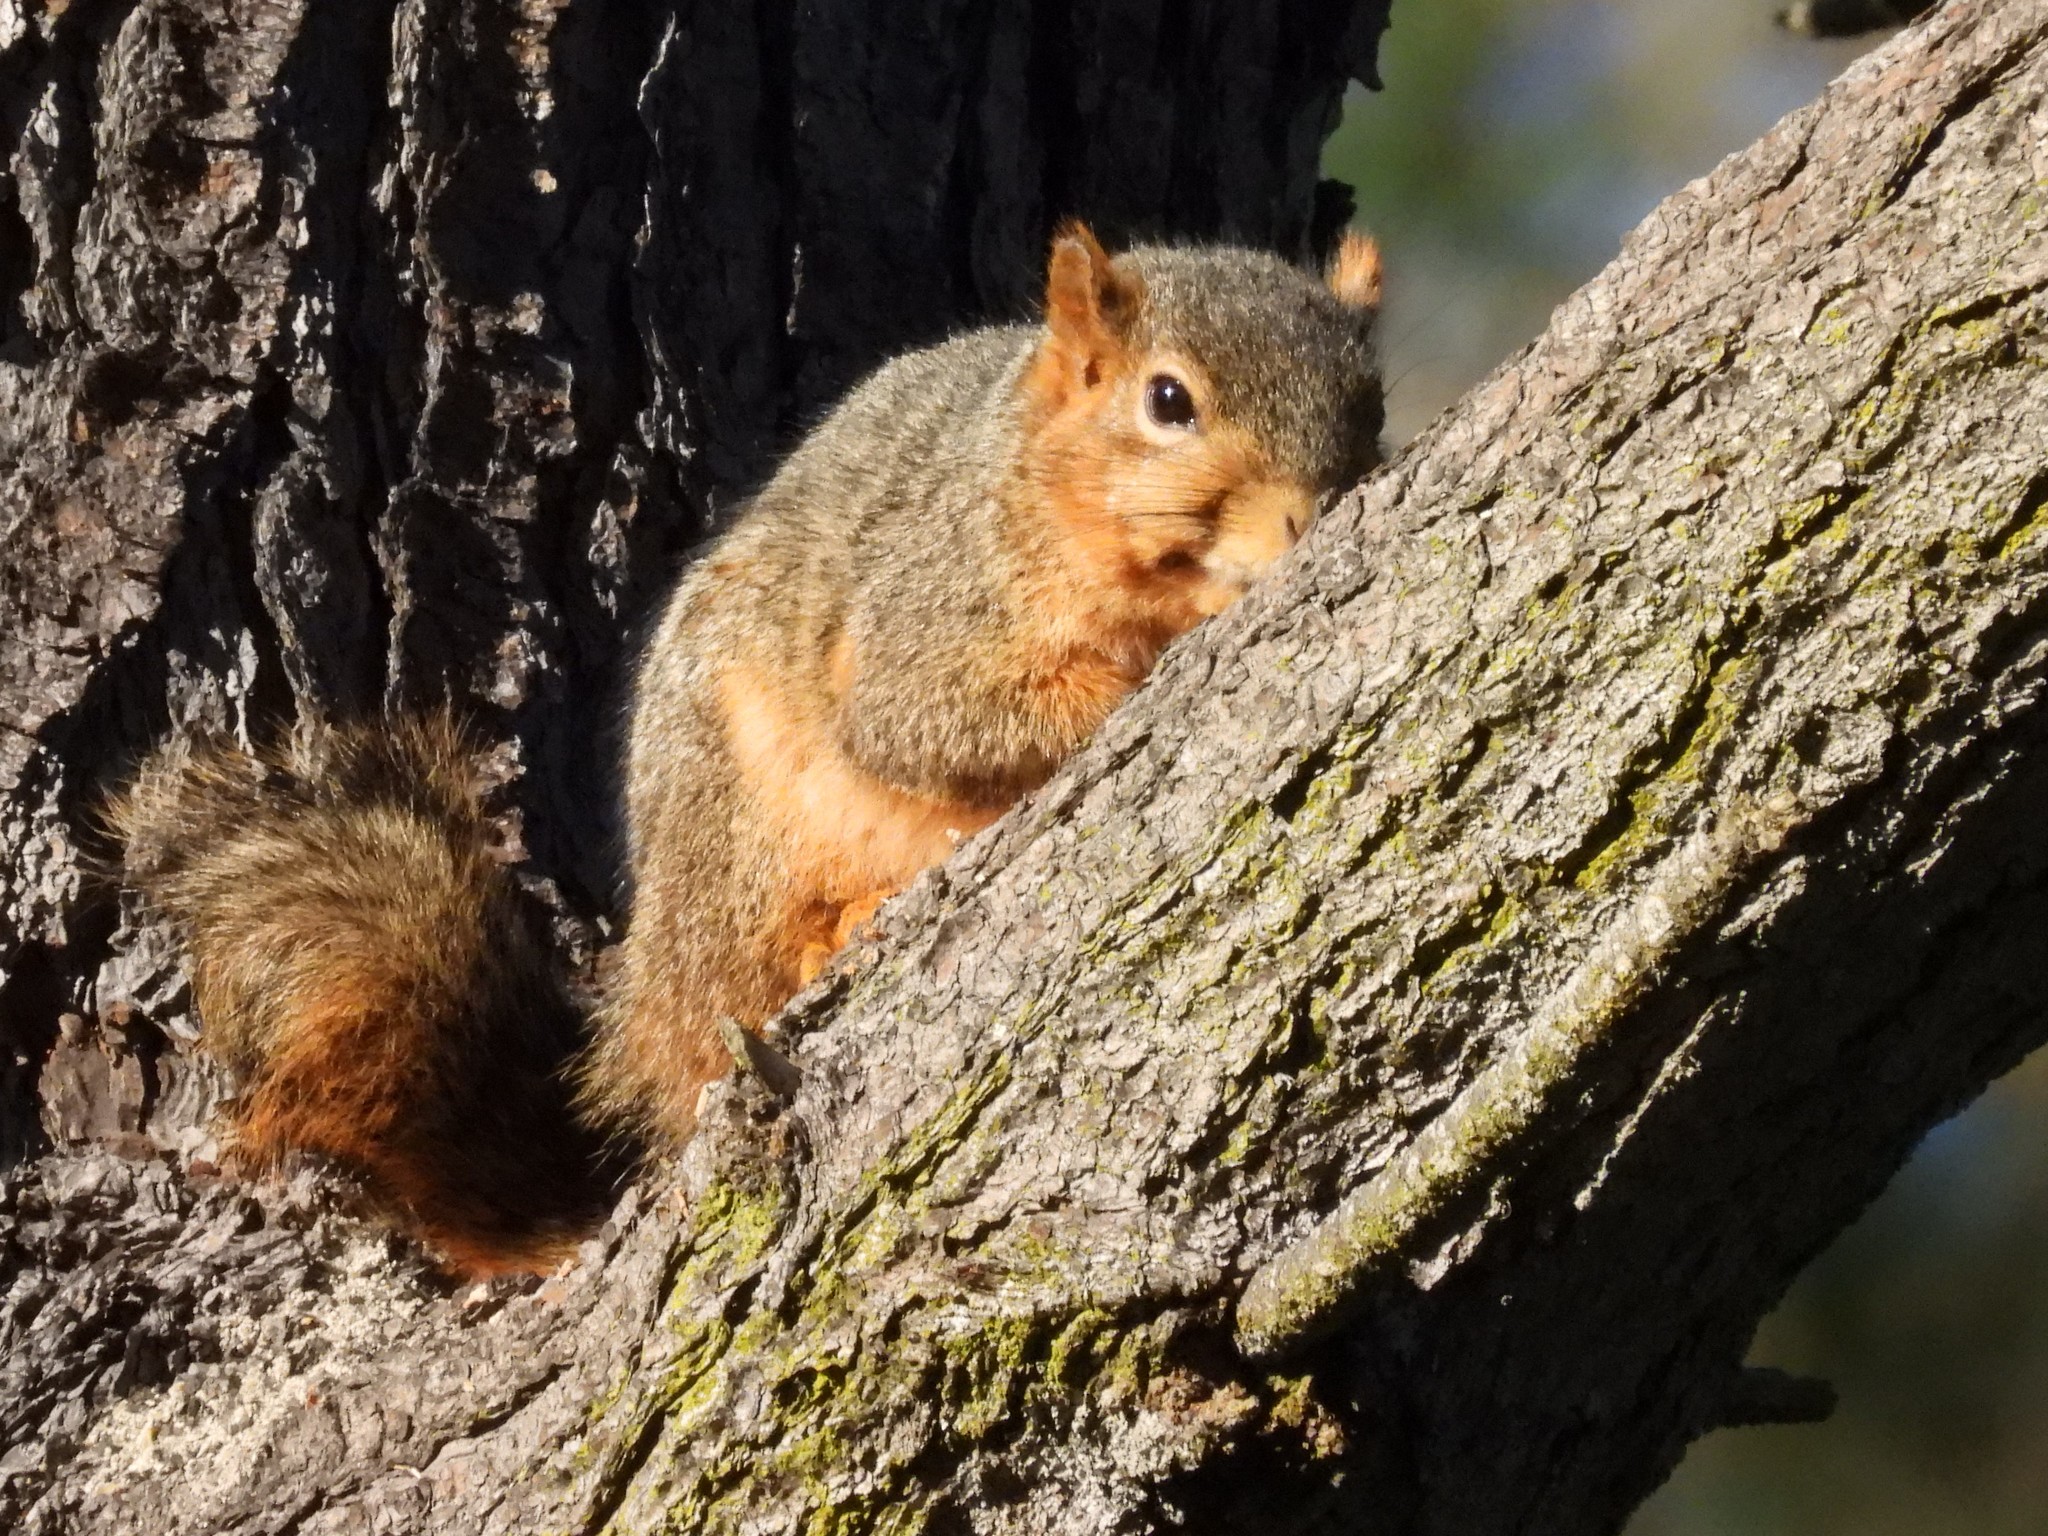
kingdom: Animalia
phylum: Chordata
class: Mammalia
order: Rodentia
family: Sciuridae
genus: Sciurus
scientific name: Sciurus niger
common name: Fox squirrel
